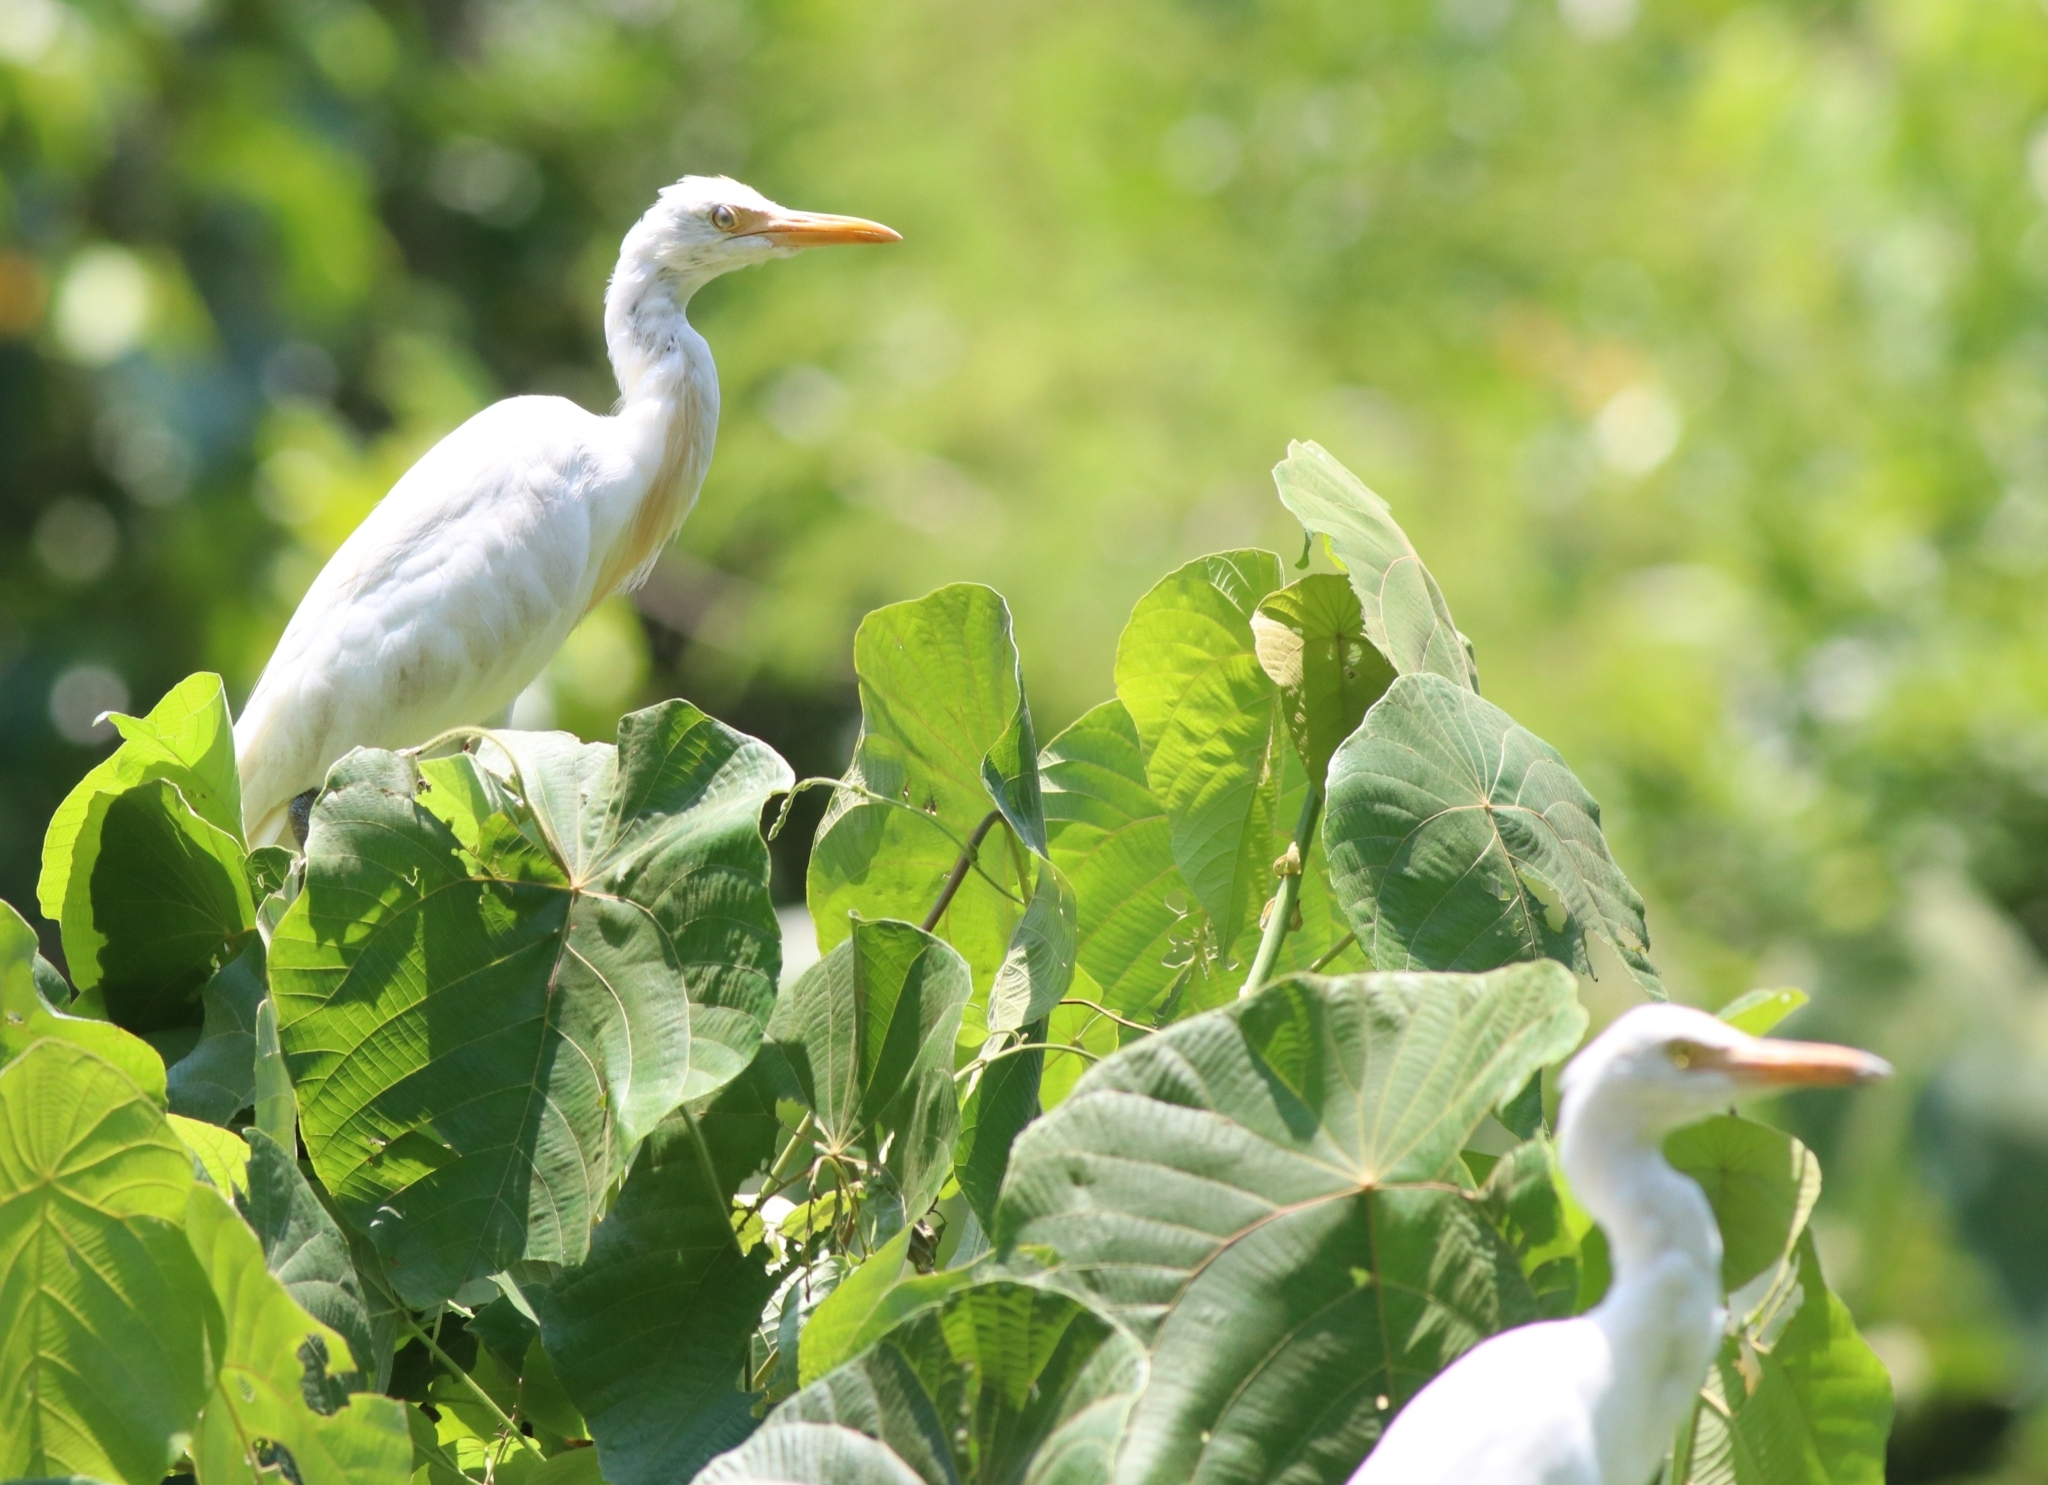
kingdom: Animalia
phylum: Chordata
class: Aves
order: Pelecaniformes
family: Ardeidae
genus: Bubulcus
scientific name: Bubulcus coromandus
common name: Eastern cattle egret
